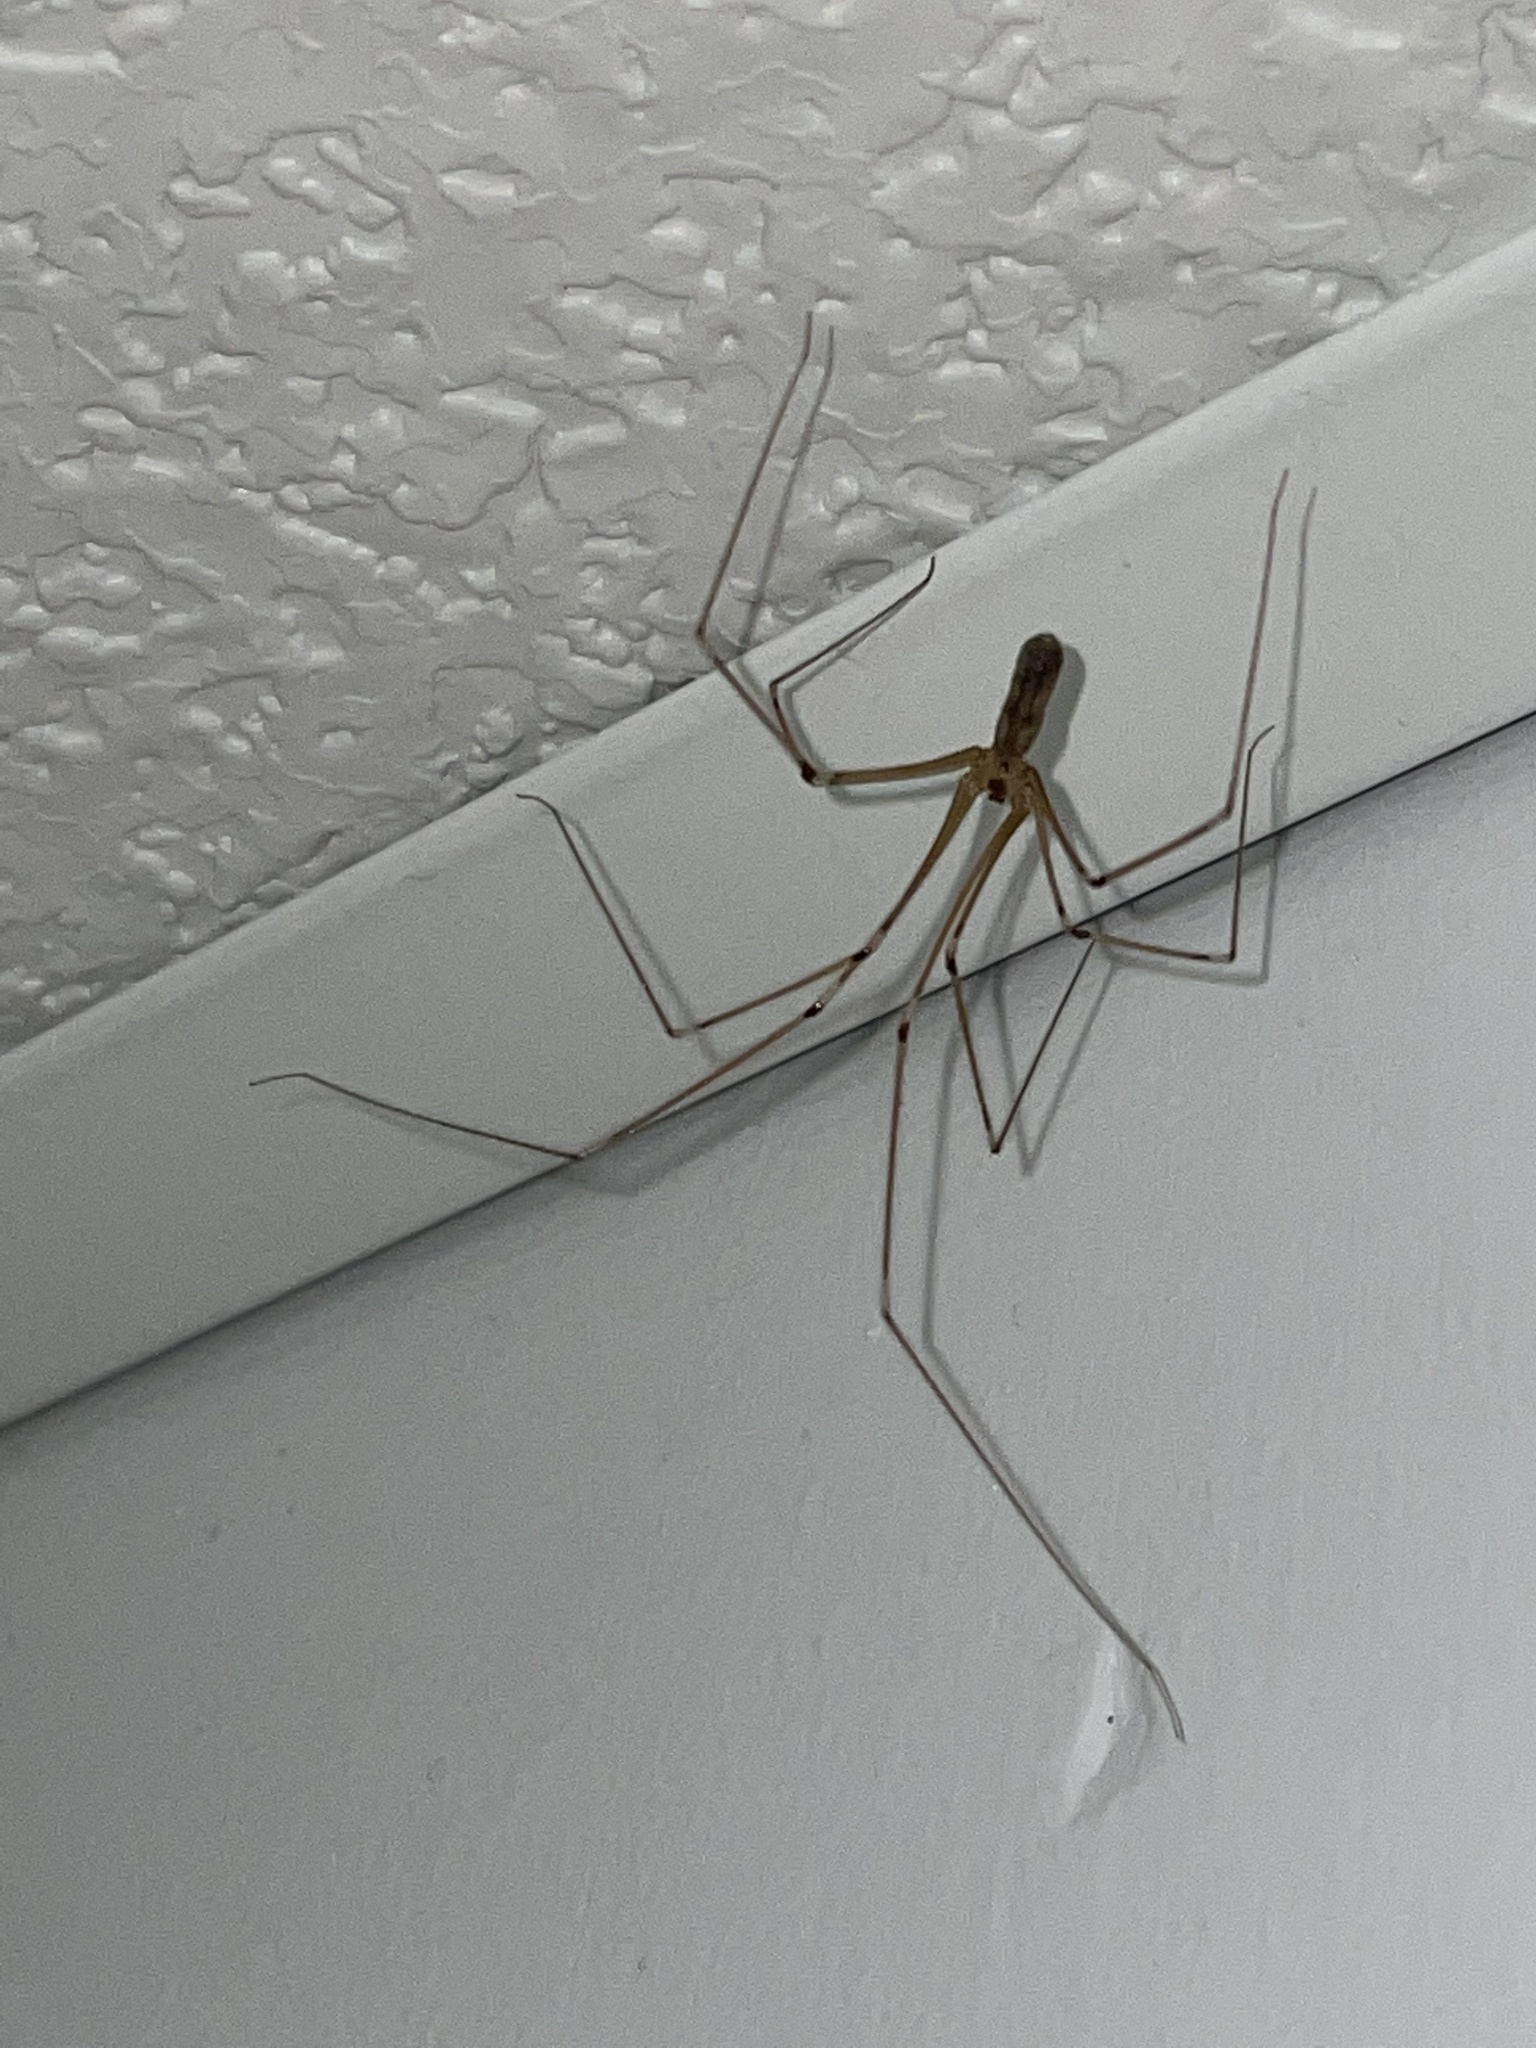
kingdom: Animalia
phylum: Arthropoda
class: Arachnida
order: Araneae
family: Pholcidae
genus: Pholcus
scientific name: Pholcus phalangioides
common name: Longbodied cellar spider
